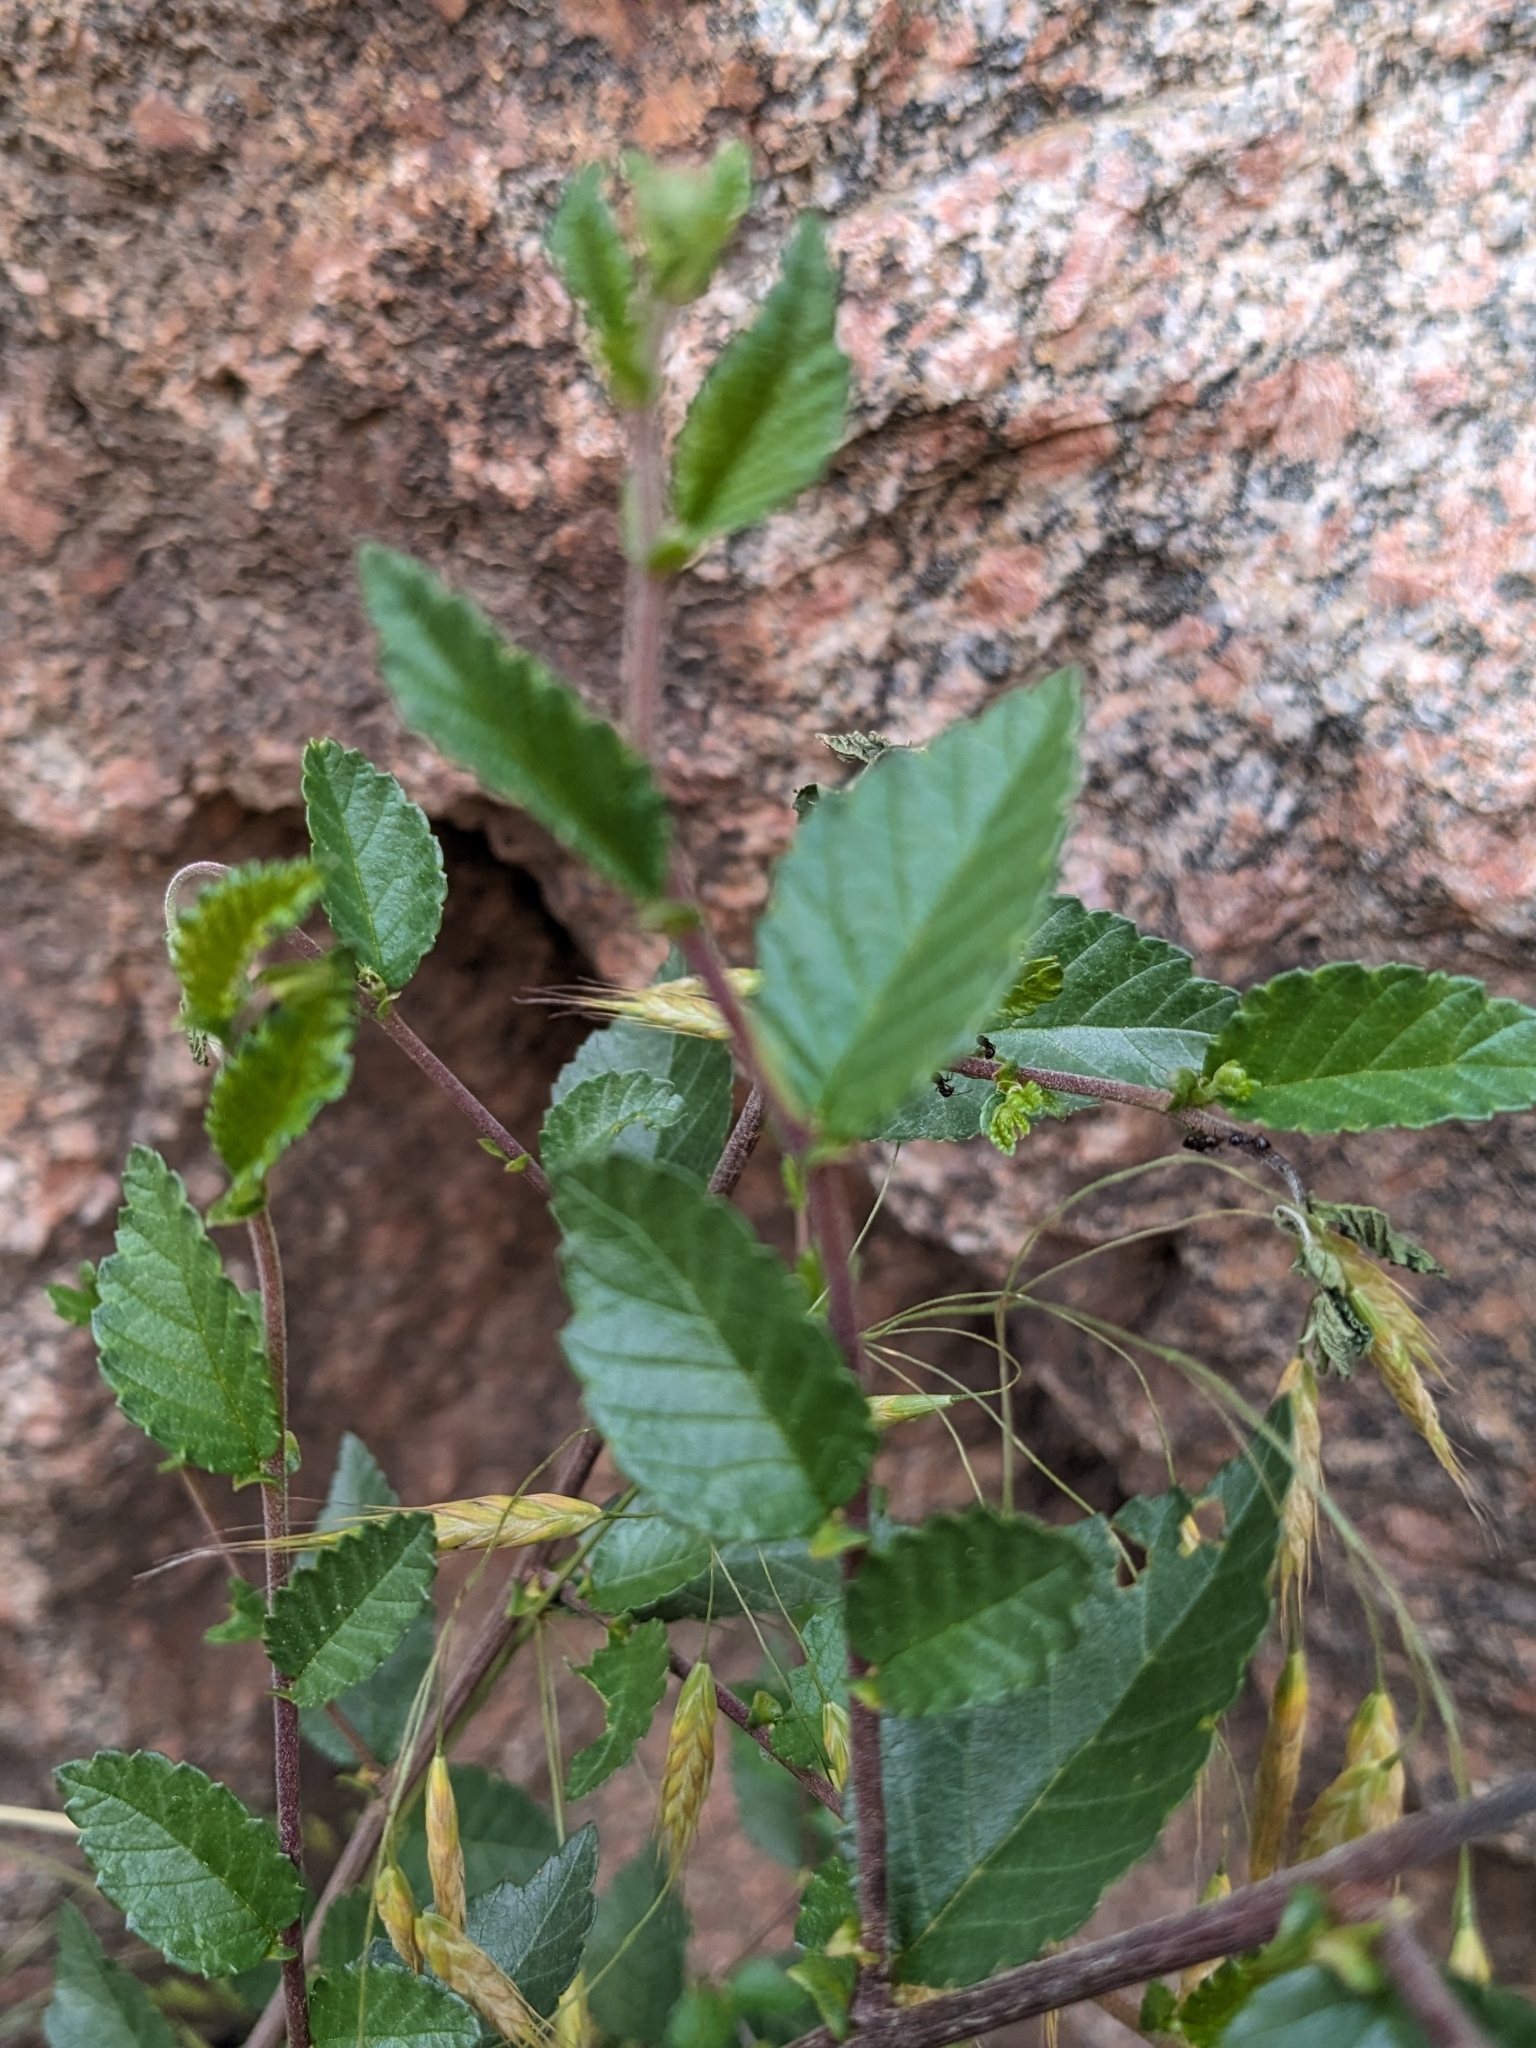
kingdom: Plantae
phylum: Tracheophyta
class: Magnoliopsida
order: Rosales
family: Ulmaceae
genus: Ulmus
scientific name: Ulmus pumila
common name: Siberian elm
